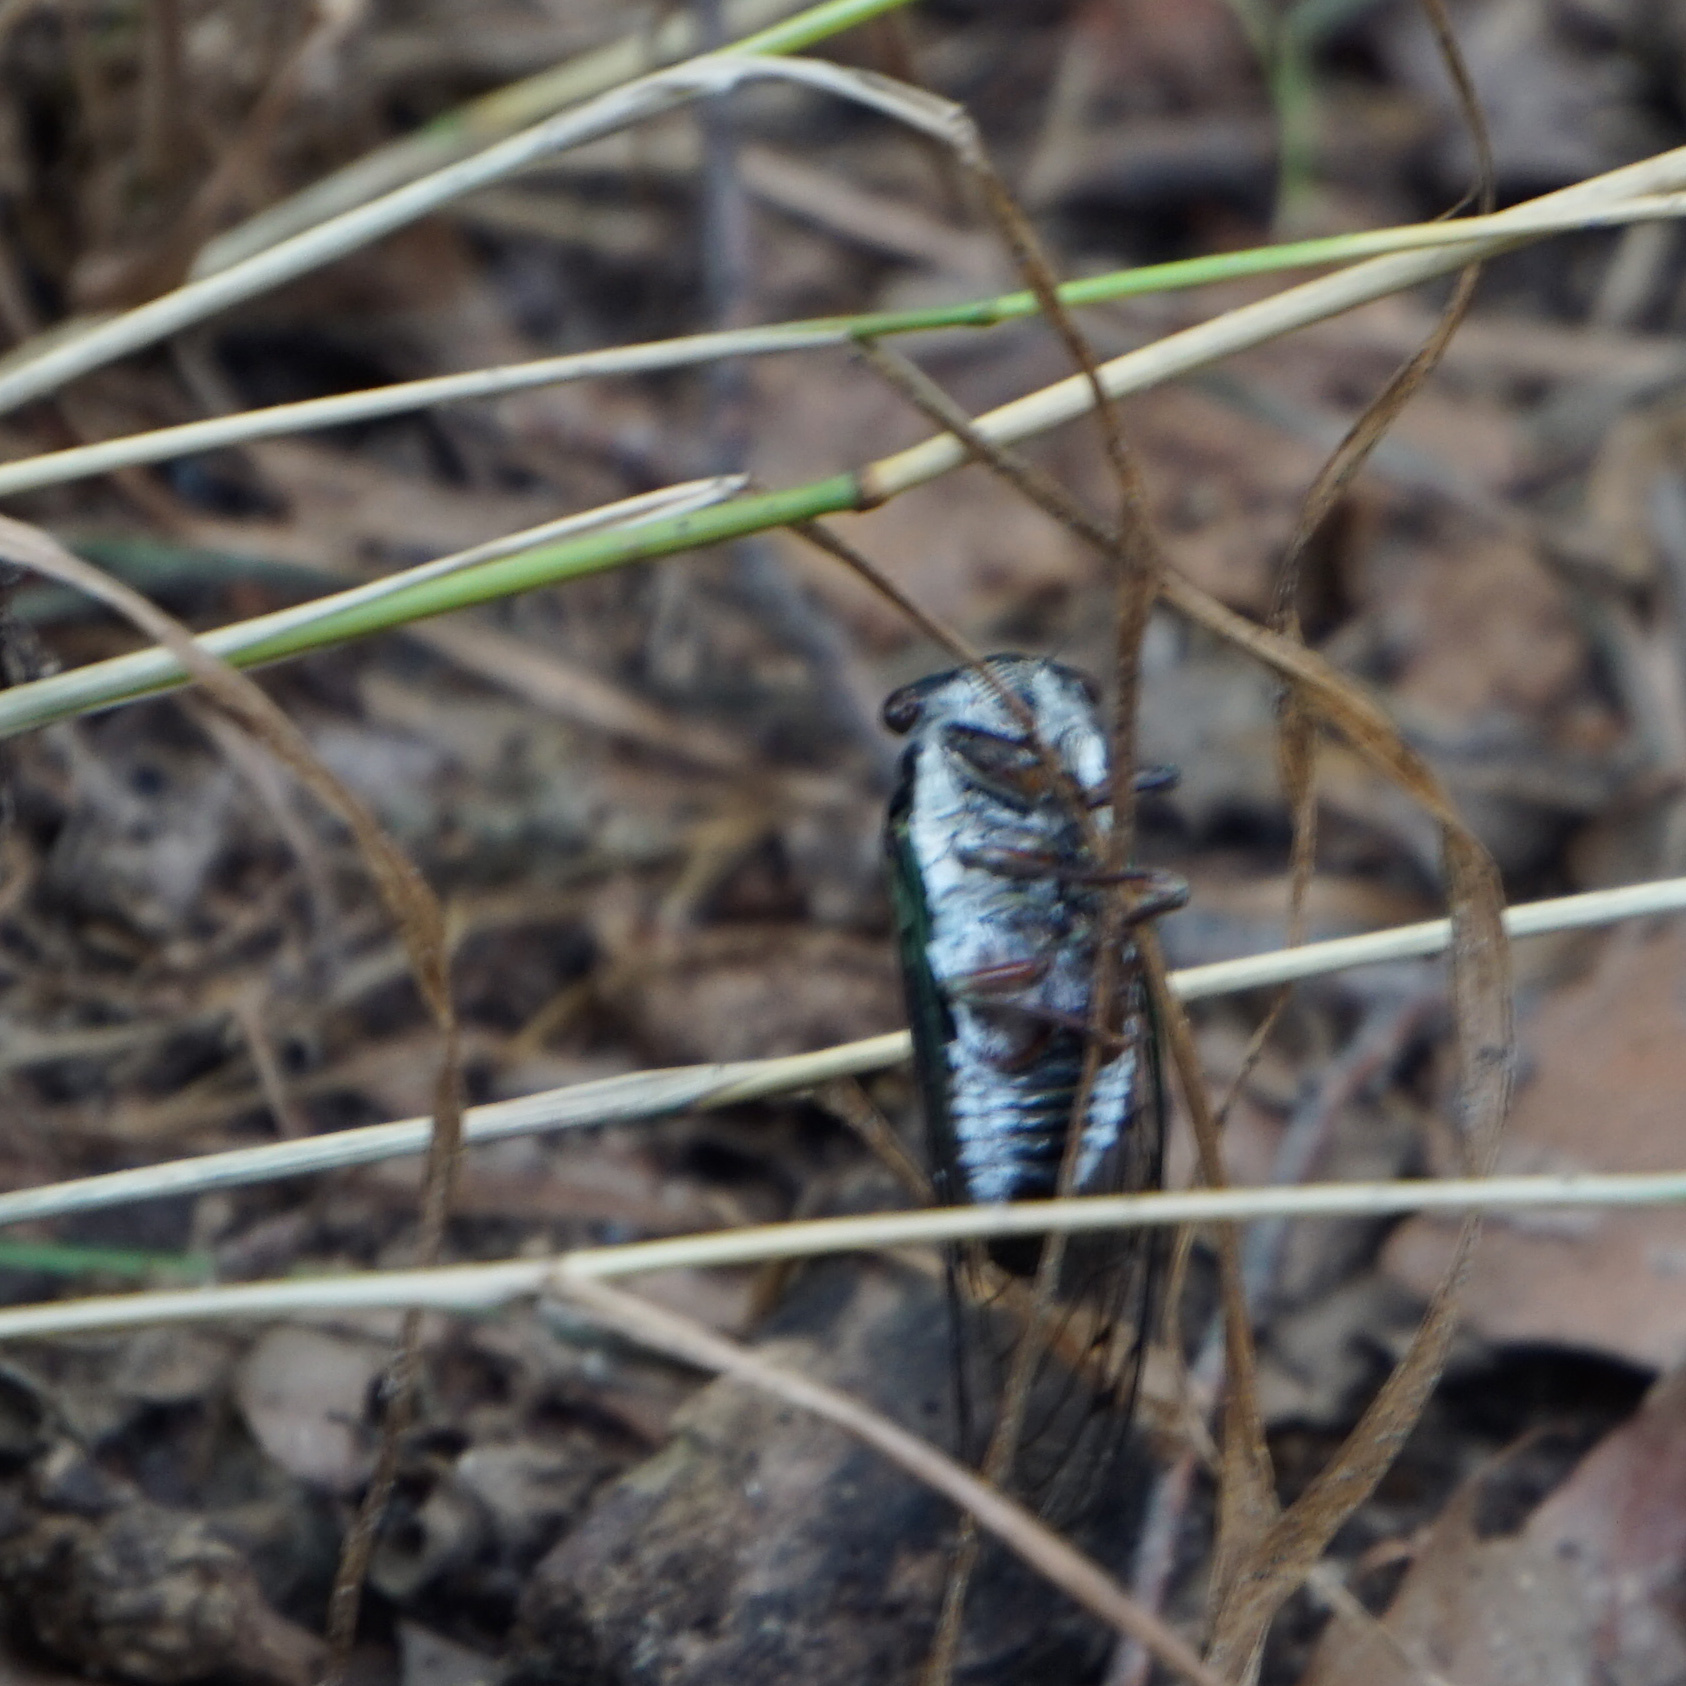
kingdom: Animalia
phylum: Arthropoda
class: Insecta
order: Hemiptera
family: Cicadidae
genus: Neotibicen
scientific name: Neotibicen lyricen
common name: Lyric cicada
